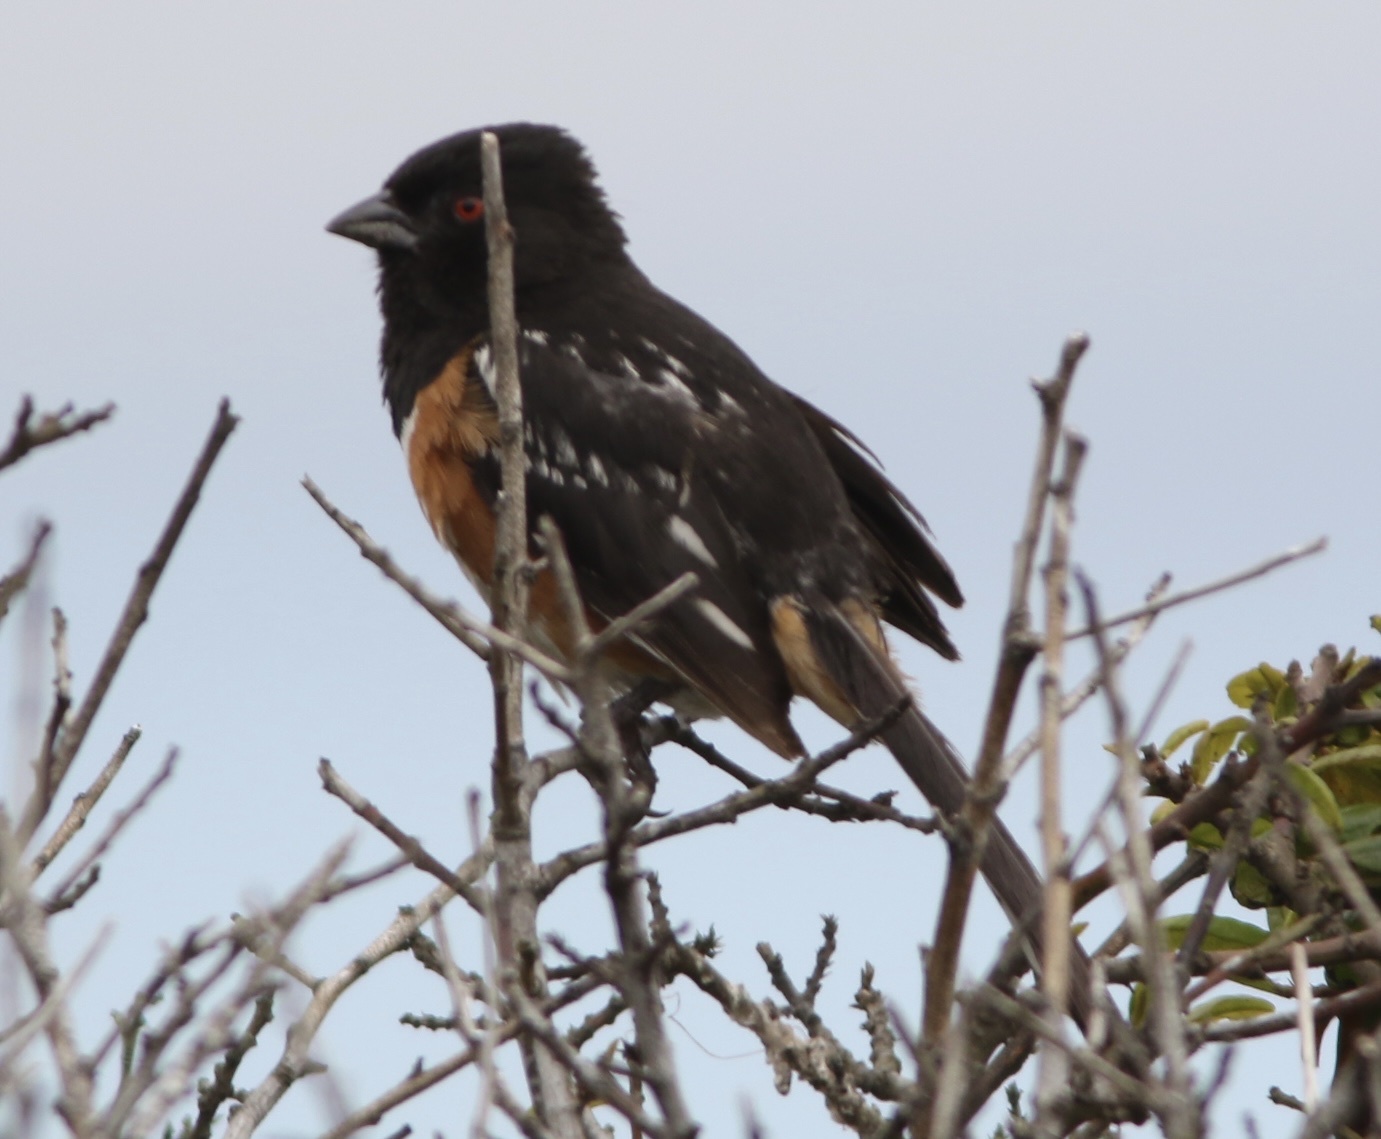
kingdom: Animalia
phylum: Chordata
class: Aves
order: Passeriformes
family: Passerellidae
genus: Pipilo
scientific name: Pipilo maculatus
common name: Spotted towhee
